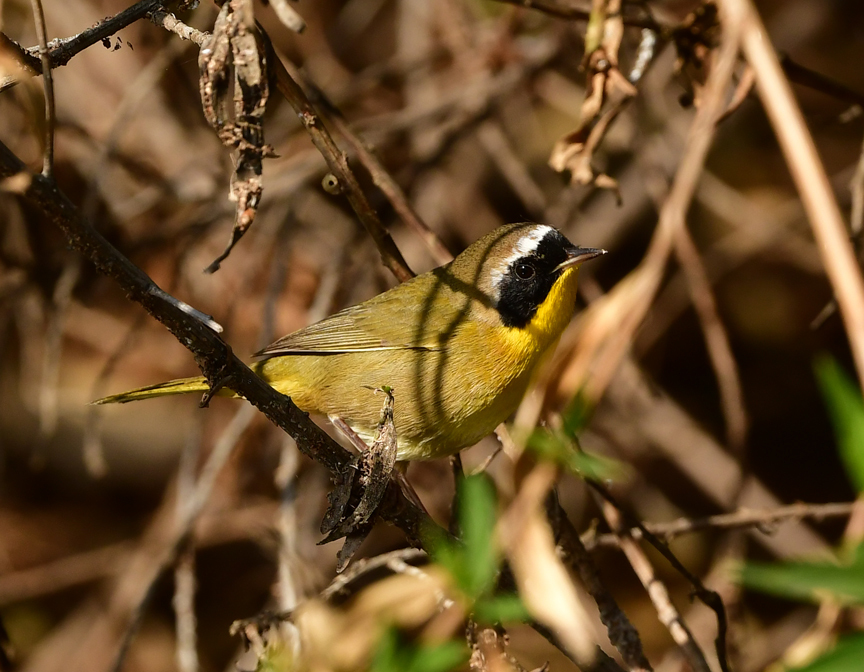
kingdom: Animalia
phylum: Chordata
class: Aves
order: Passeriformes
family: Parulidae
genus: Geothlypis
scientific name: Geothlypis trichas
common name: Common yellowthroat
